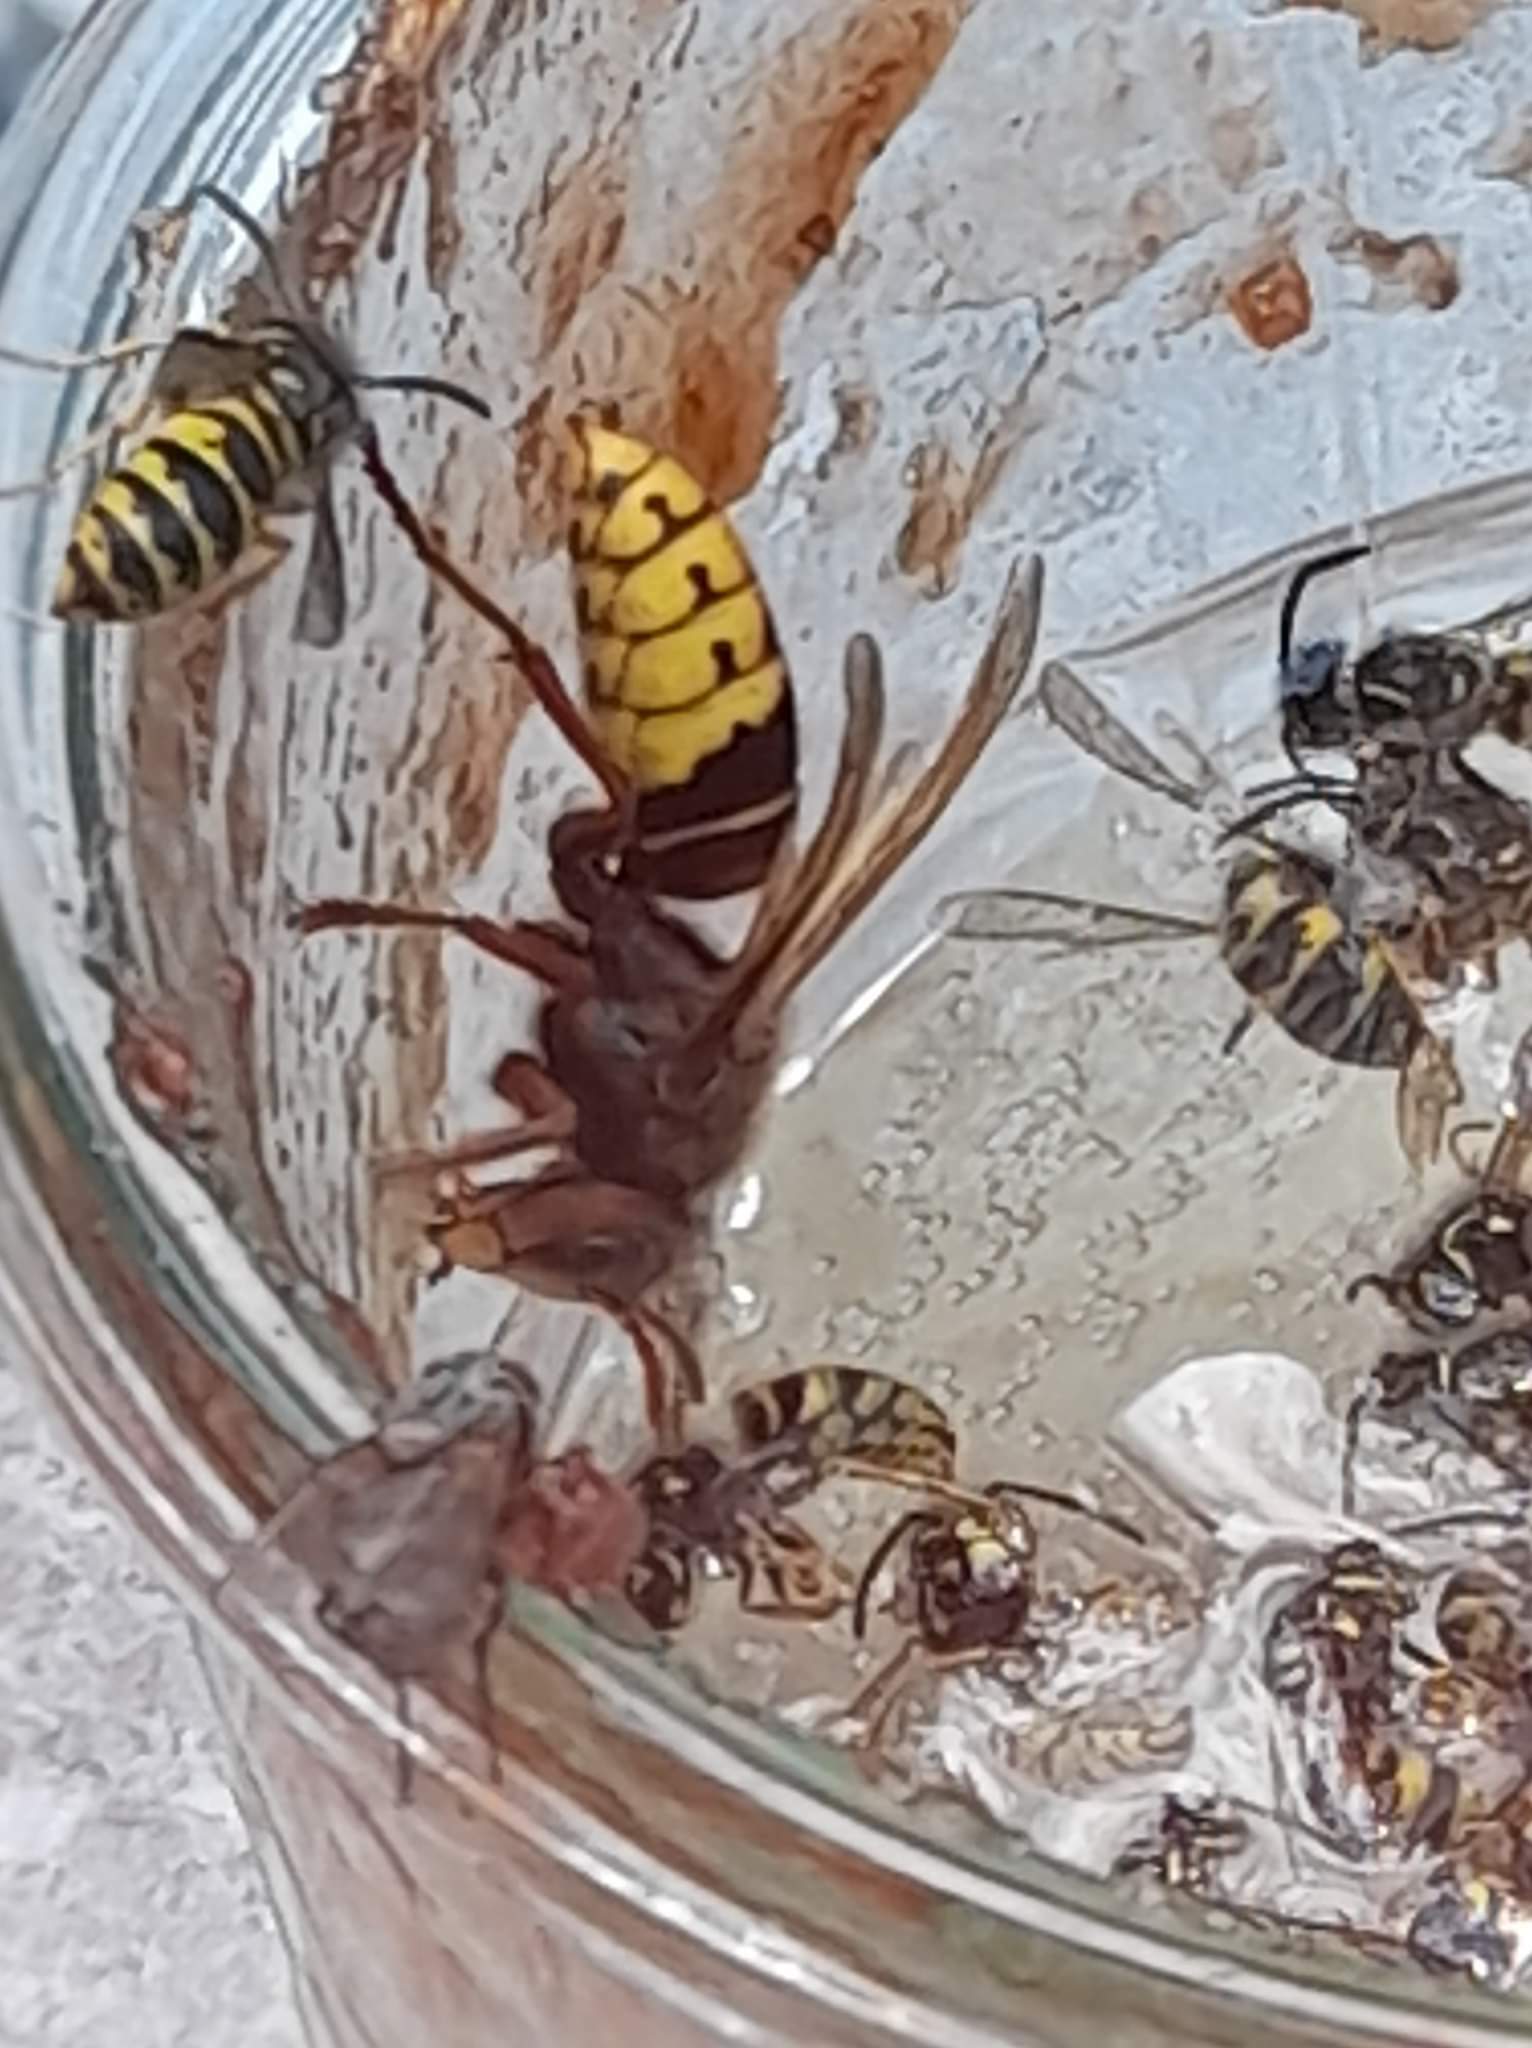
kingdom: Animalia
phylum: Arthropoda
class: Insecta
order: Hymenoptera
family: Vespidae
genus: Vespa
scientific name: Vespa crabro
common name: Hornet
